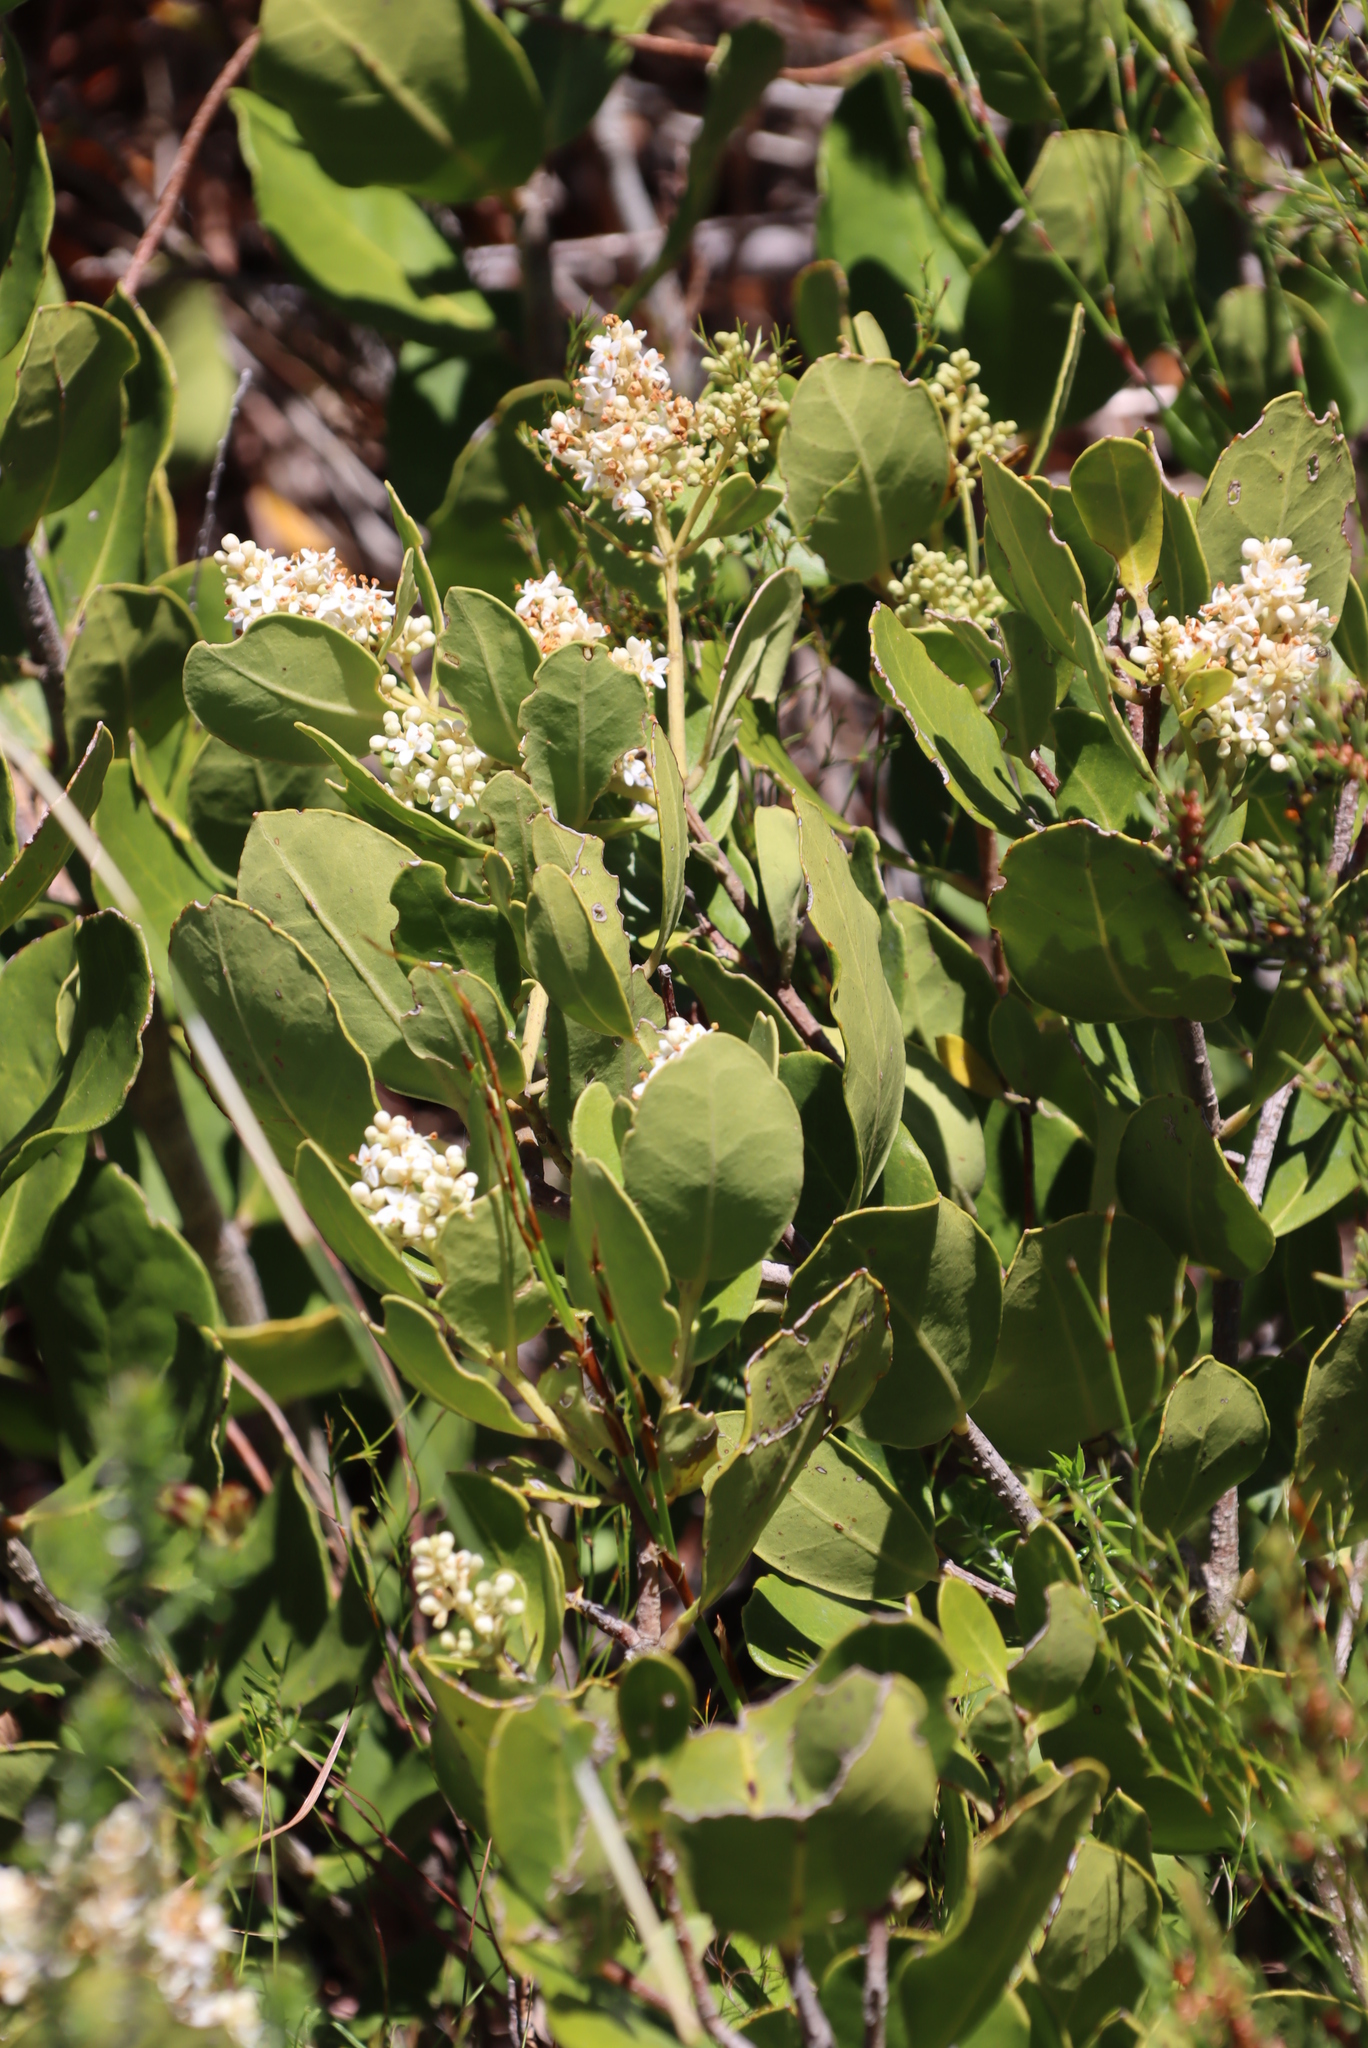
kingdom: Plantae
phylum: Tracheophyta
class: Magnoliopsida
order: Lamiales
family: Oleaceae
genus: Olea
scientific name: Olea capensis
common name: Black ironwood
